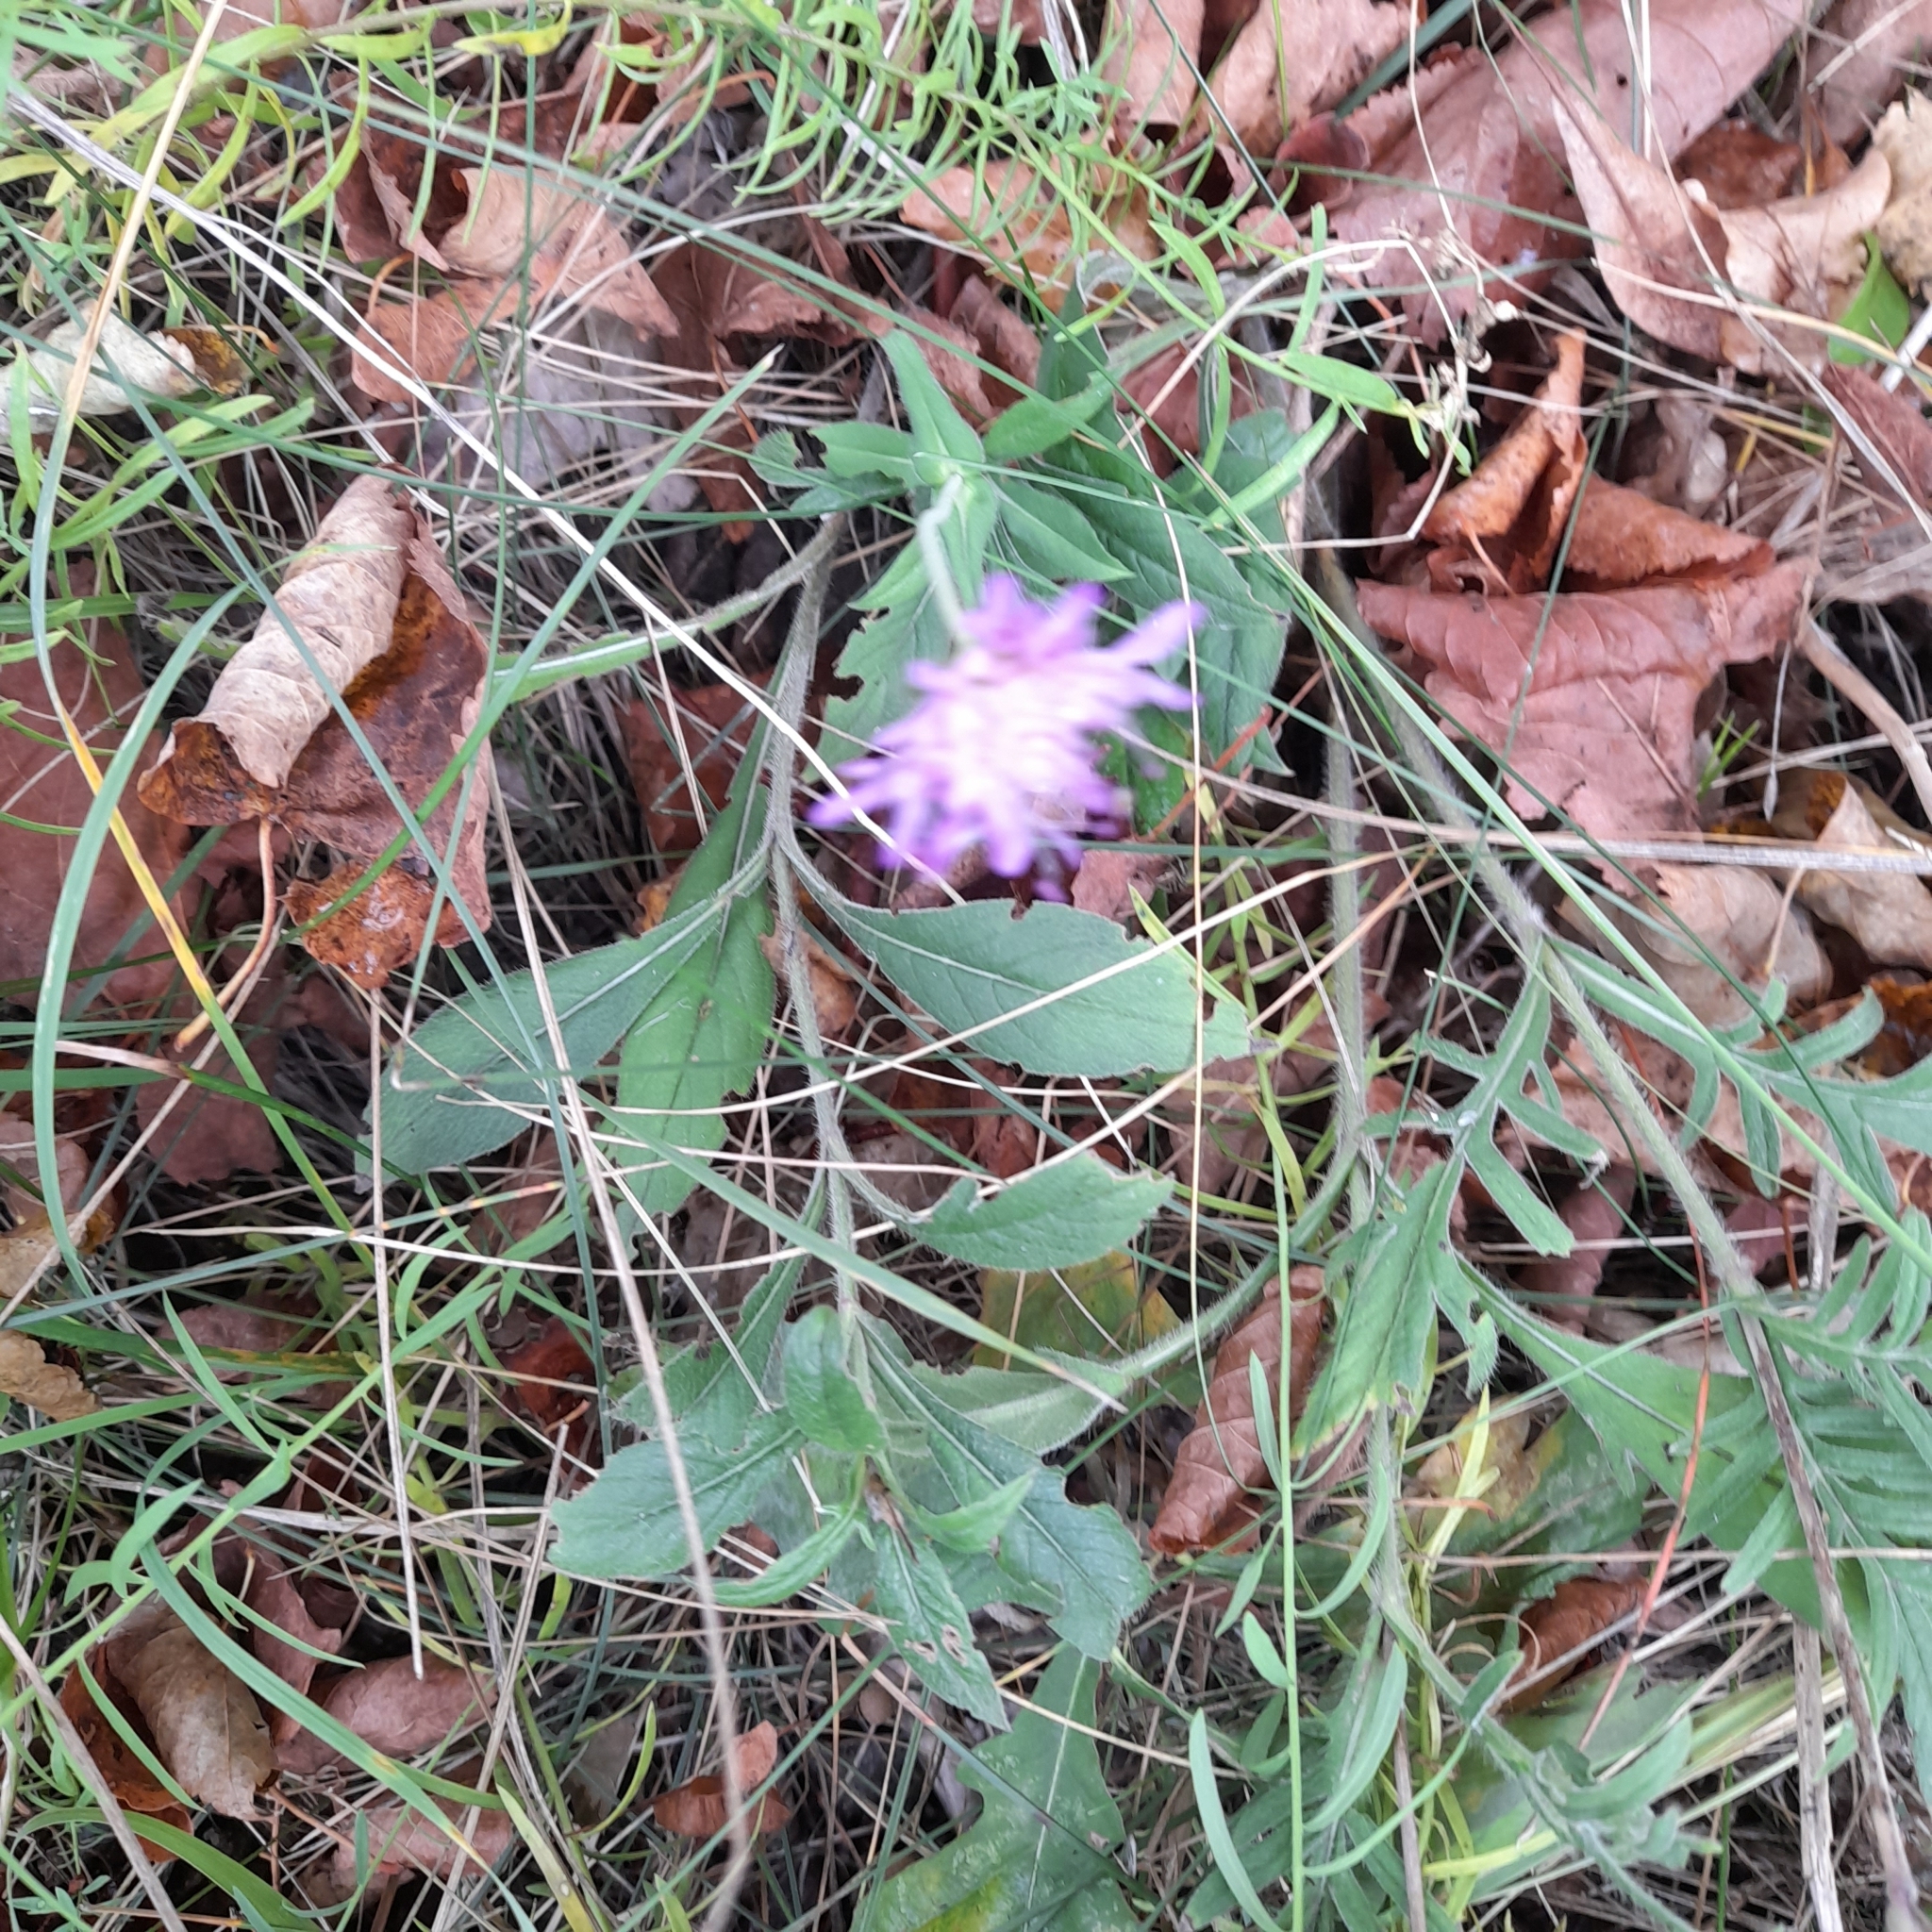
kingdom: Plantae
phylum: Tracheophyta
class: Magnoliopsida
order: Dipsacales
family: Caprifoliaceae
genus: Knautia
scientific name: Knautia arvensis
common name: Field scabiosa
